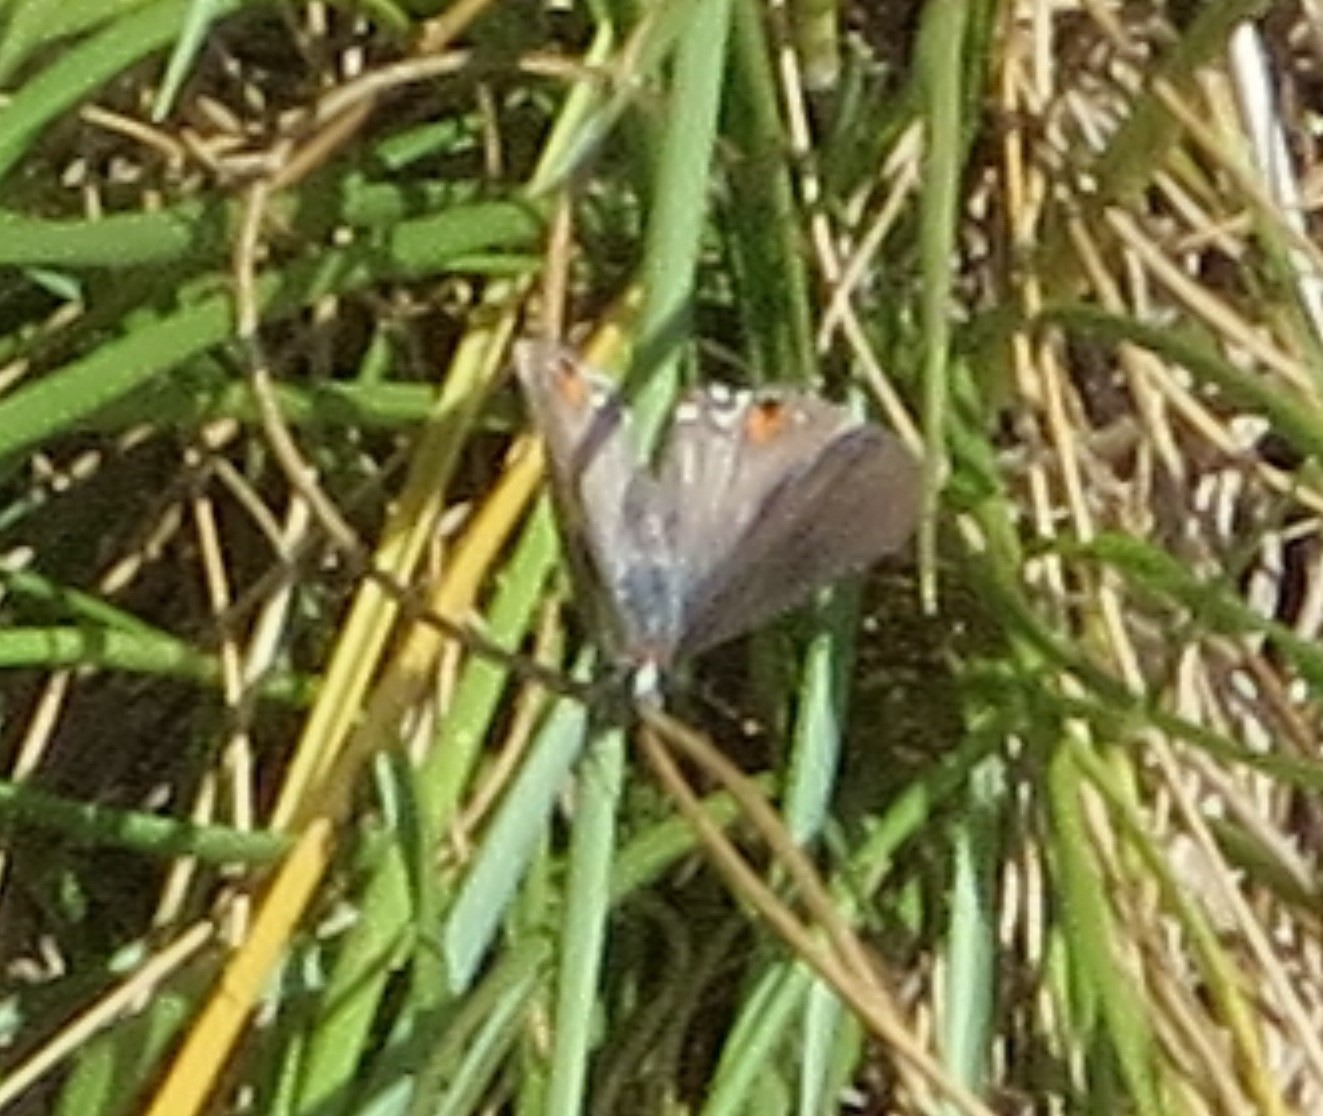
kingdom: Animalia
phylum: Arthropoda
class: Insecta
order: Lepidoptera
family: Lycaenidae
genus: Strymon
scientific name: Strymon melinus
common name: Gray hairstreak
